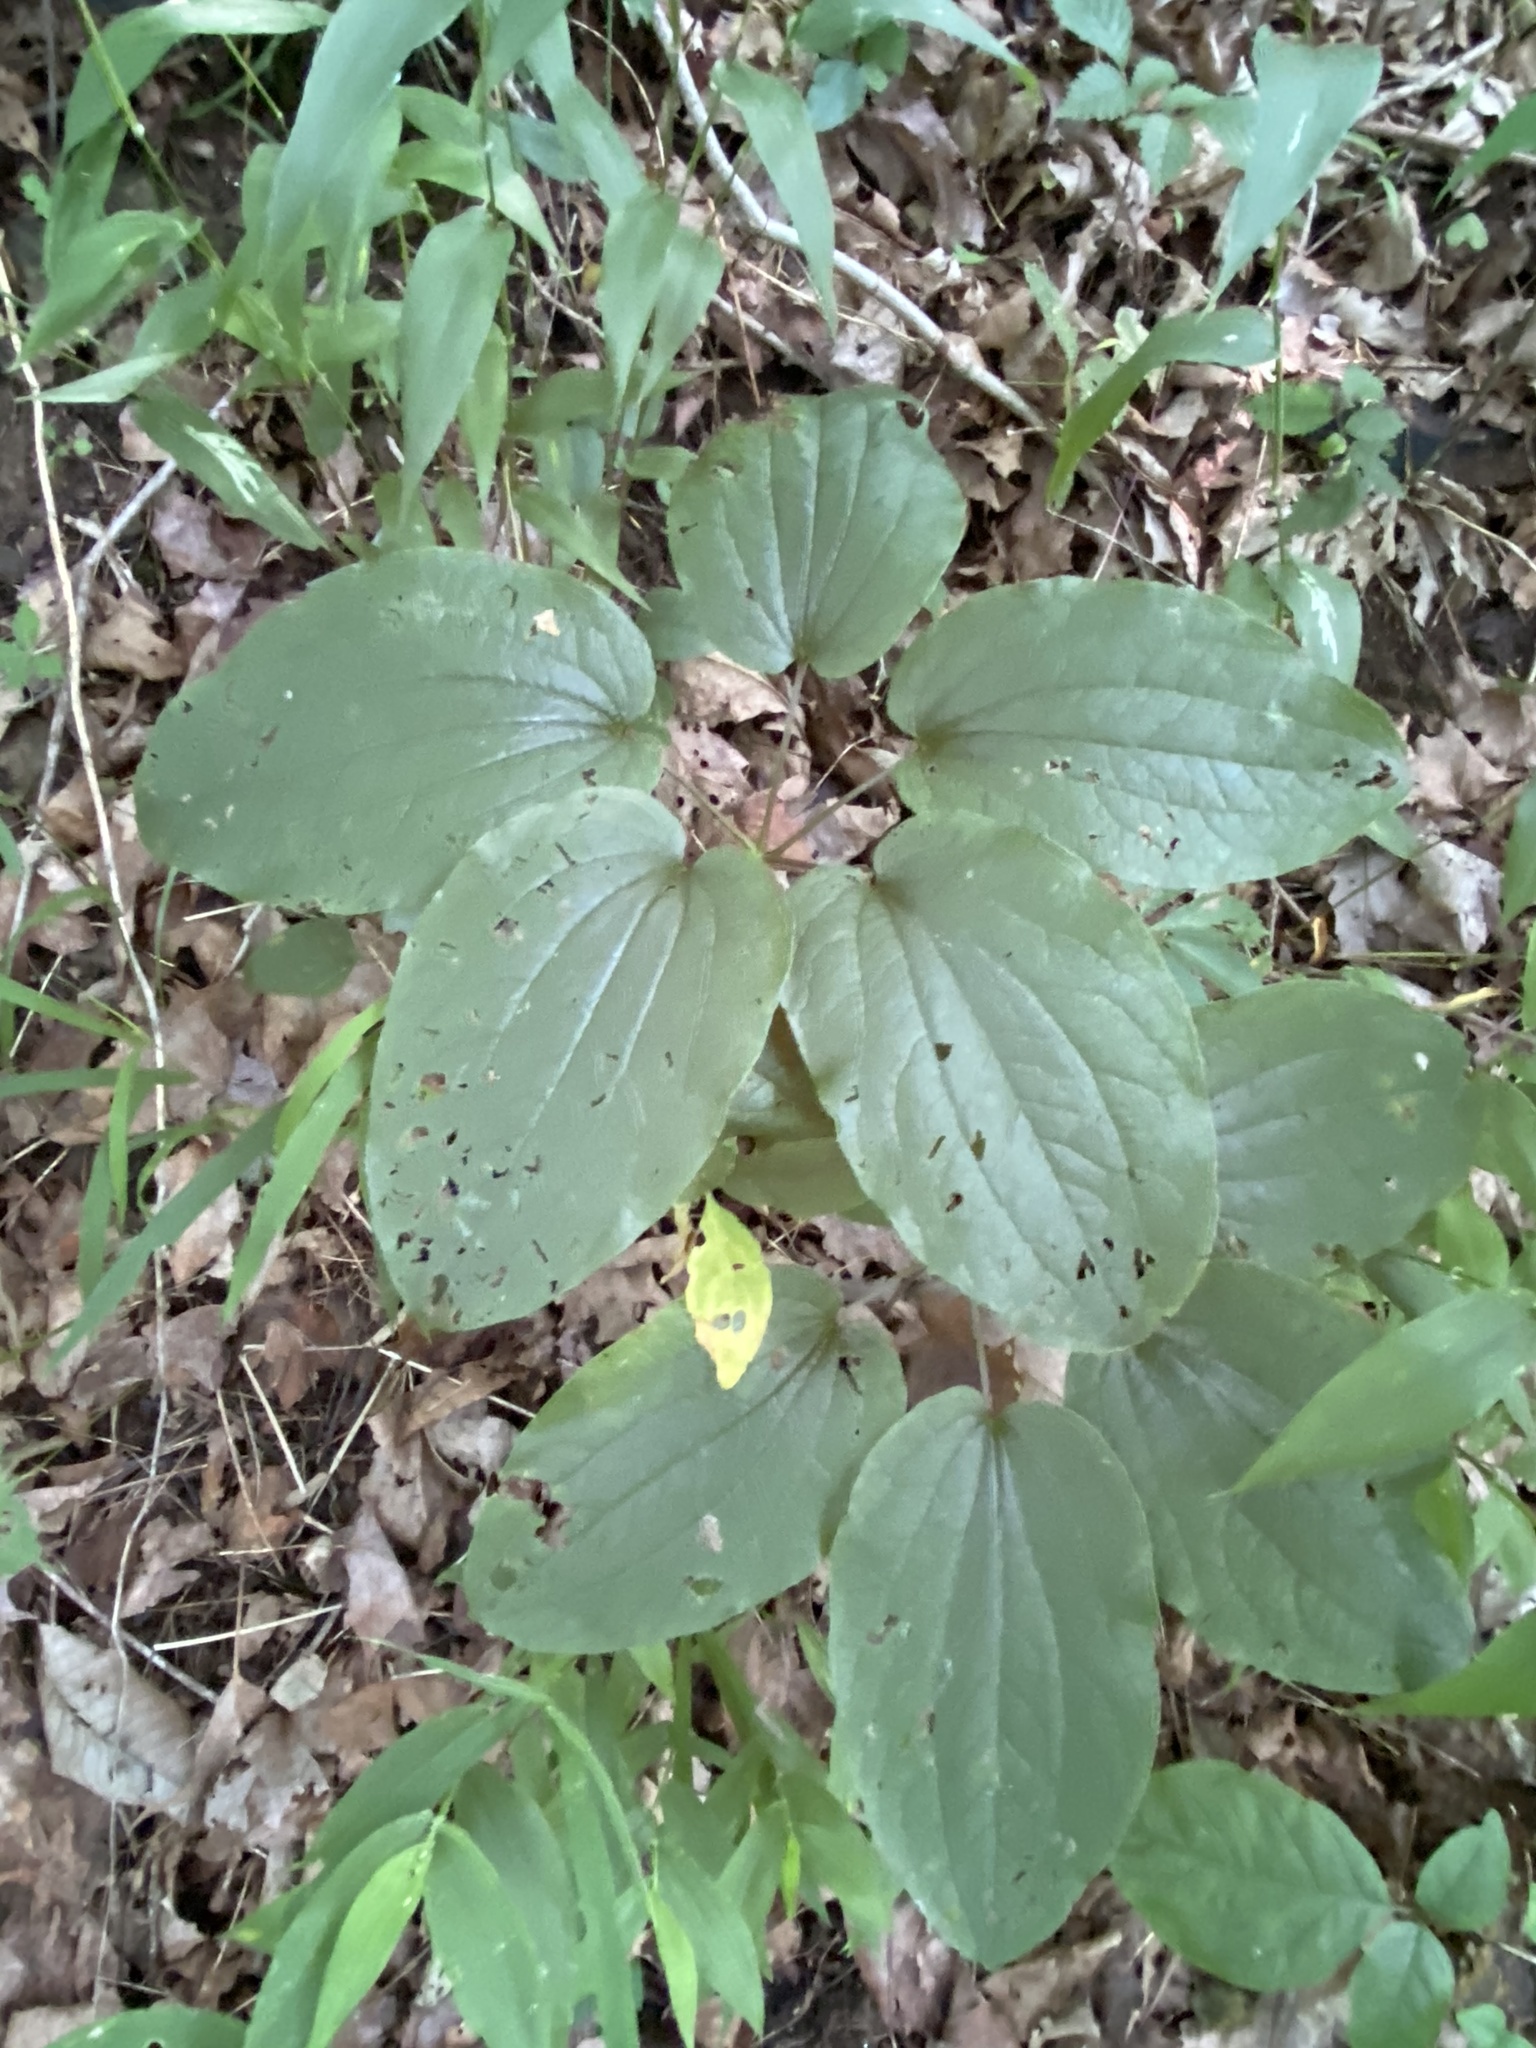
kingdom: Plantae
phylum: Tracheophyta
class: Liliopsida
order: Liliales
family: Smilacaceae
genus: Smilax
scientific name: Smilax ecirrhata
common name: Upright carrionflower
